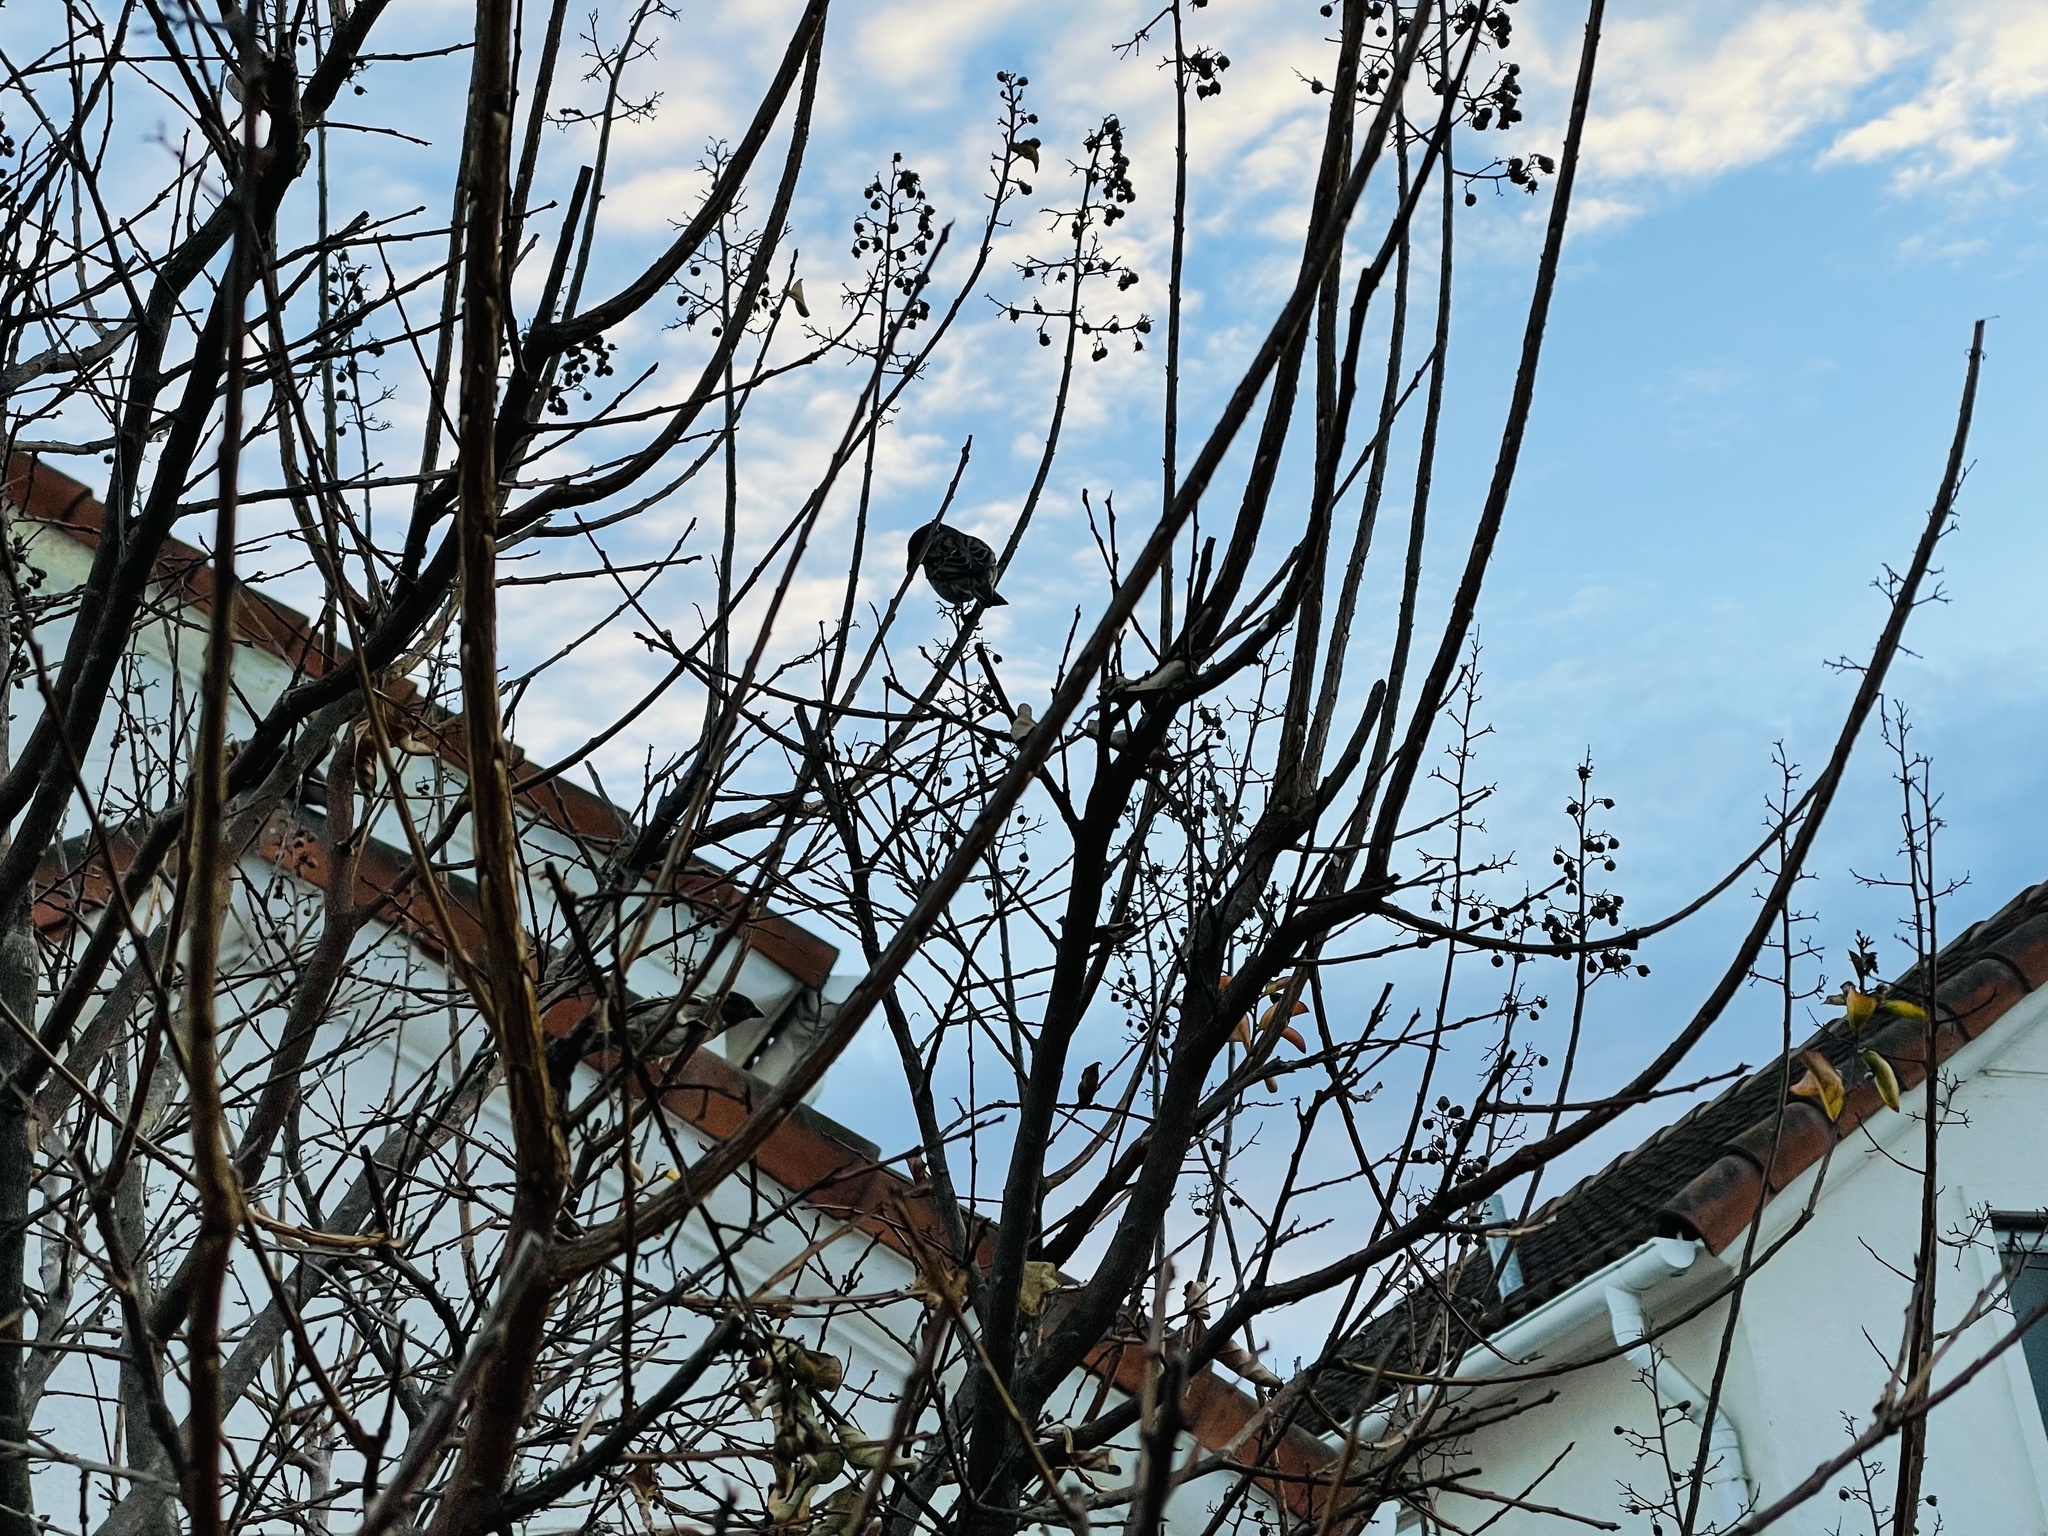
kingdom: Animalia
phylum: Chordata
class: Aves
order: Passeriformes
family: Passeridae
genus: Passer
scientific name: Passer domesticus
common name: House sparrow
